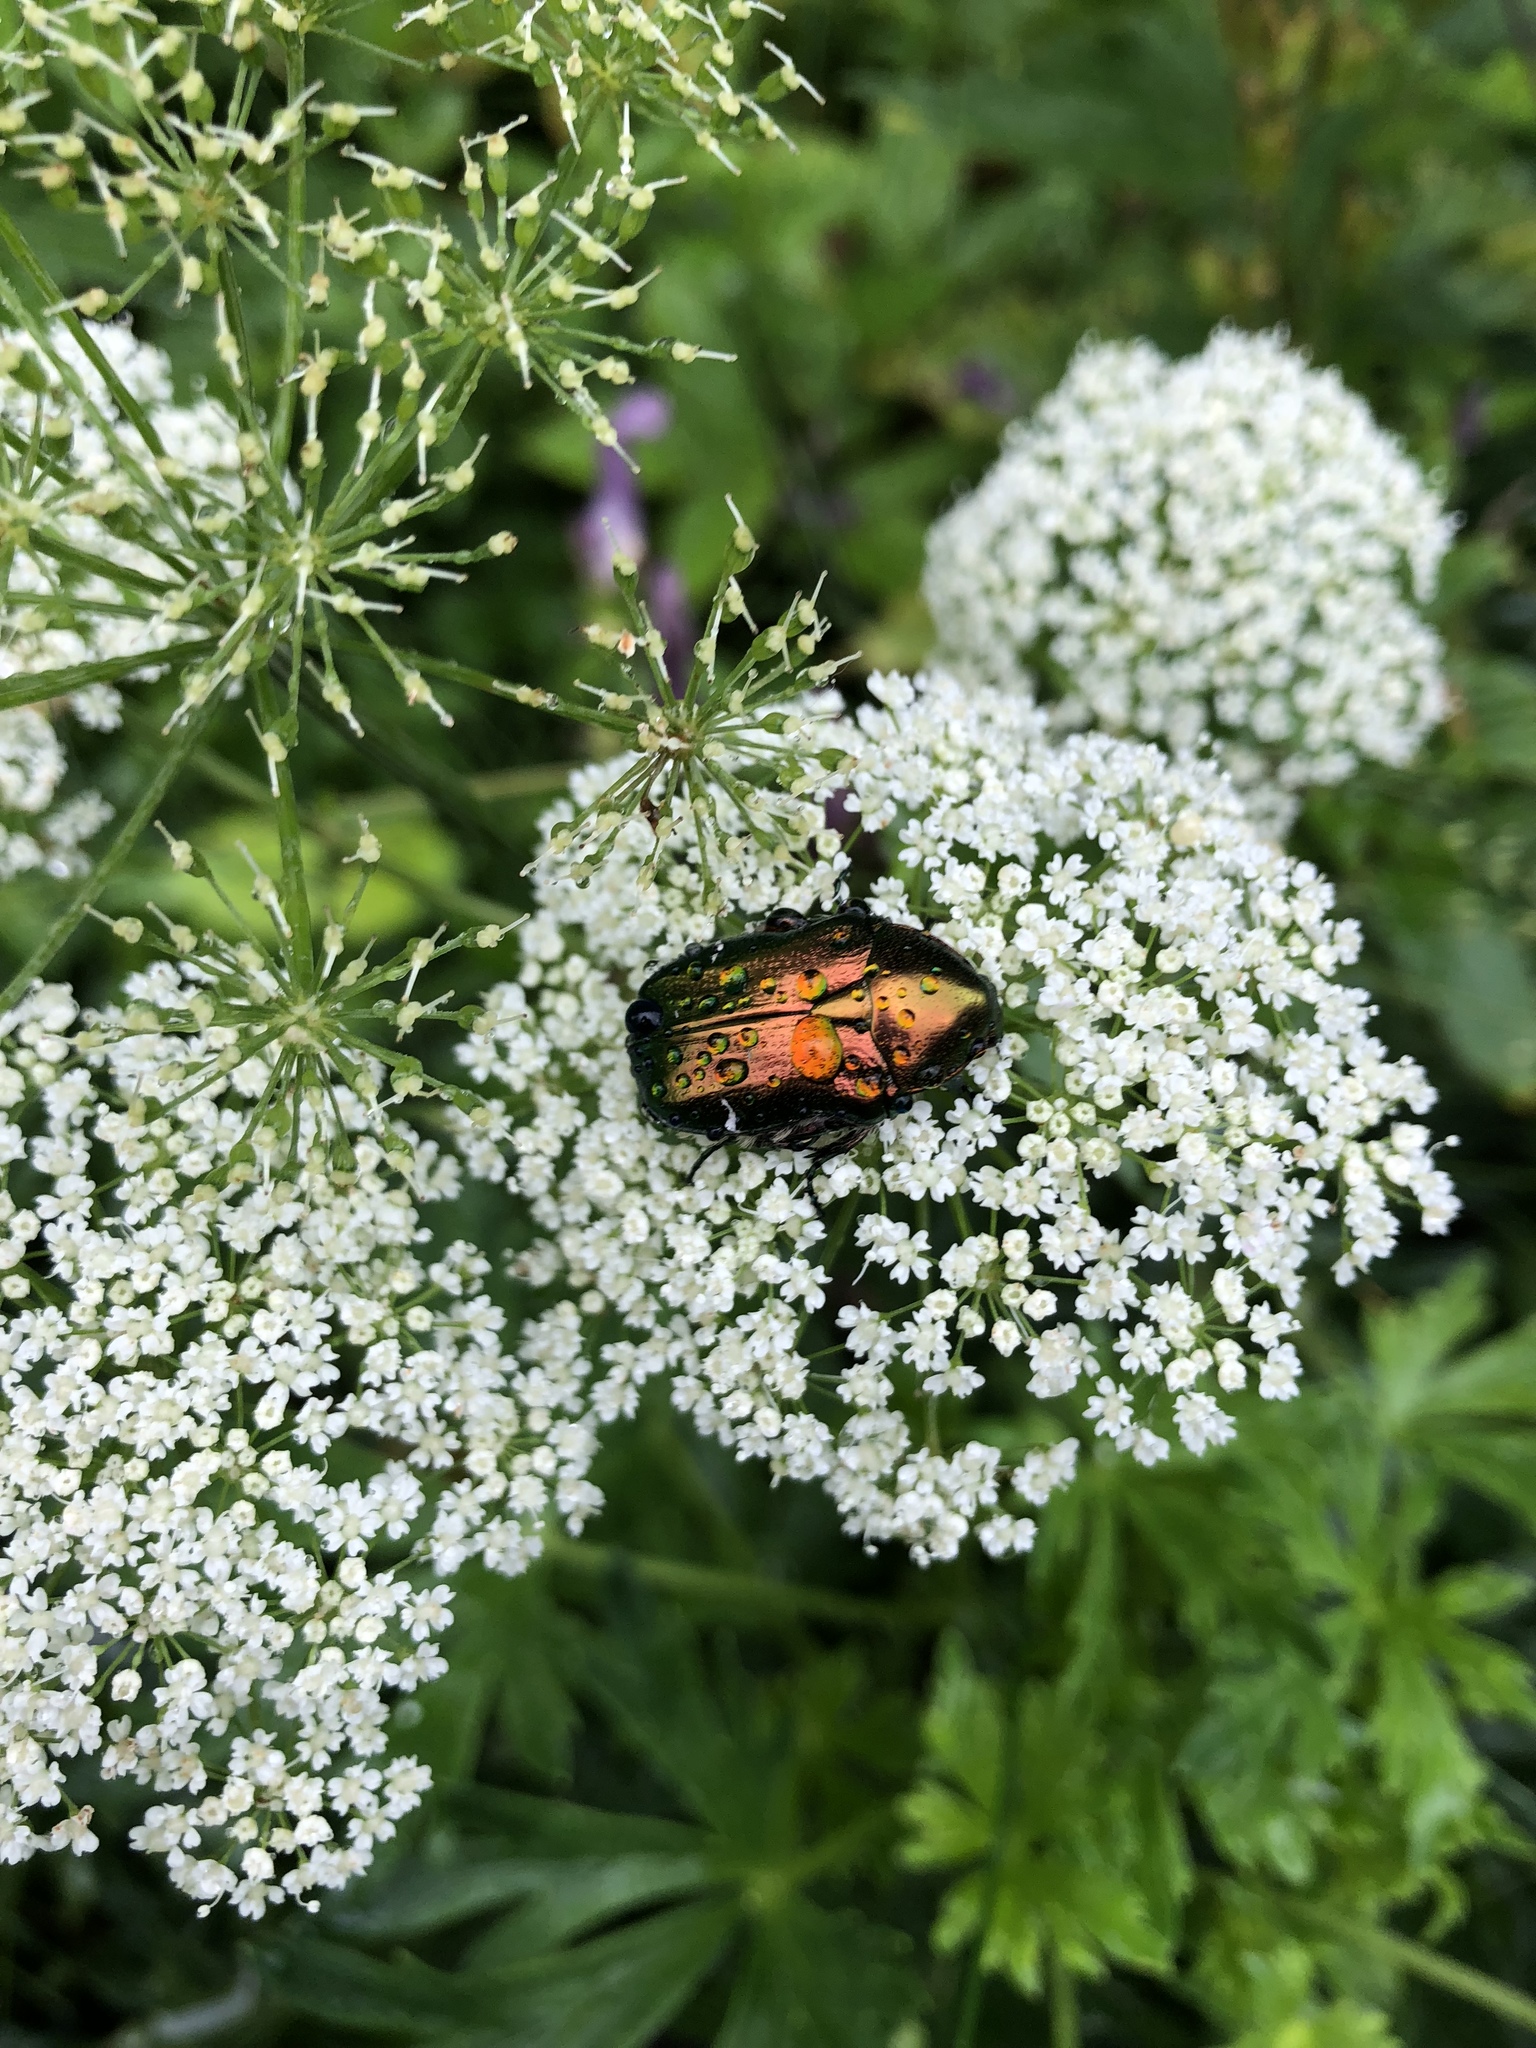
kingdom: Animalia
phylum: Arthropoda
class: Insecta
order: Coleoptera
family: Scarabaeidae
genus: Cetonia
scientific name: Cetonia aurata
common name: Rose chafer
